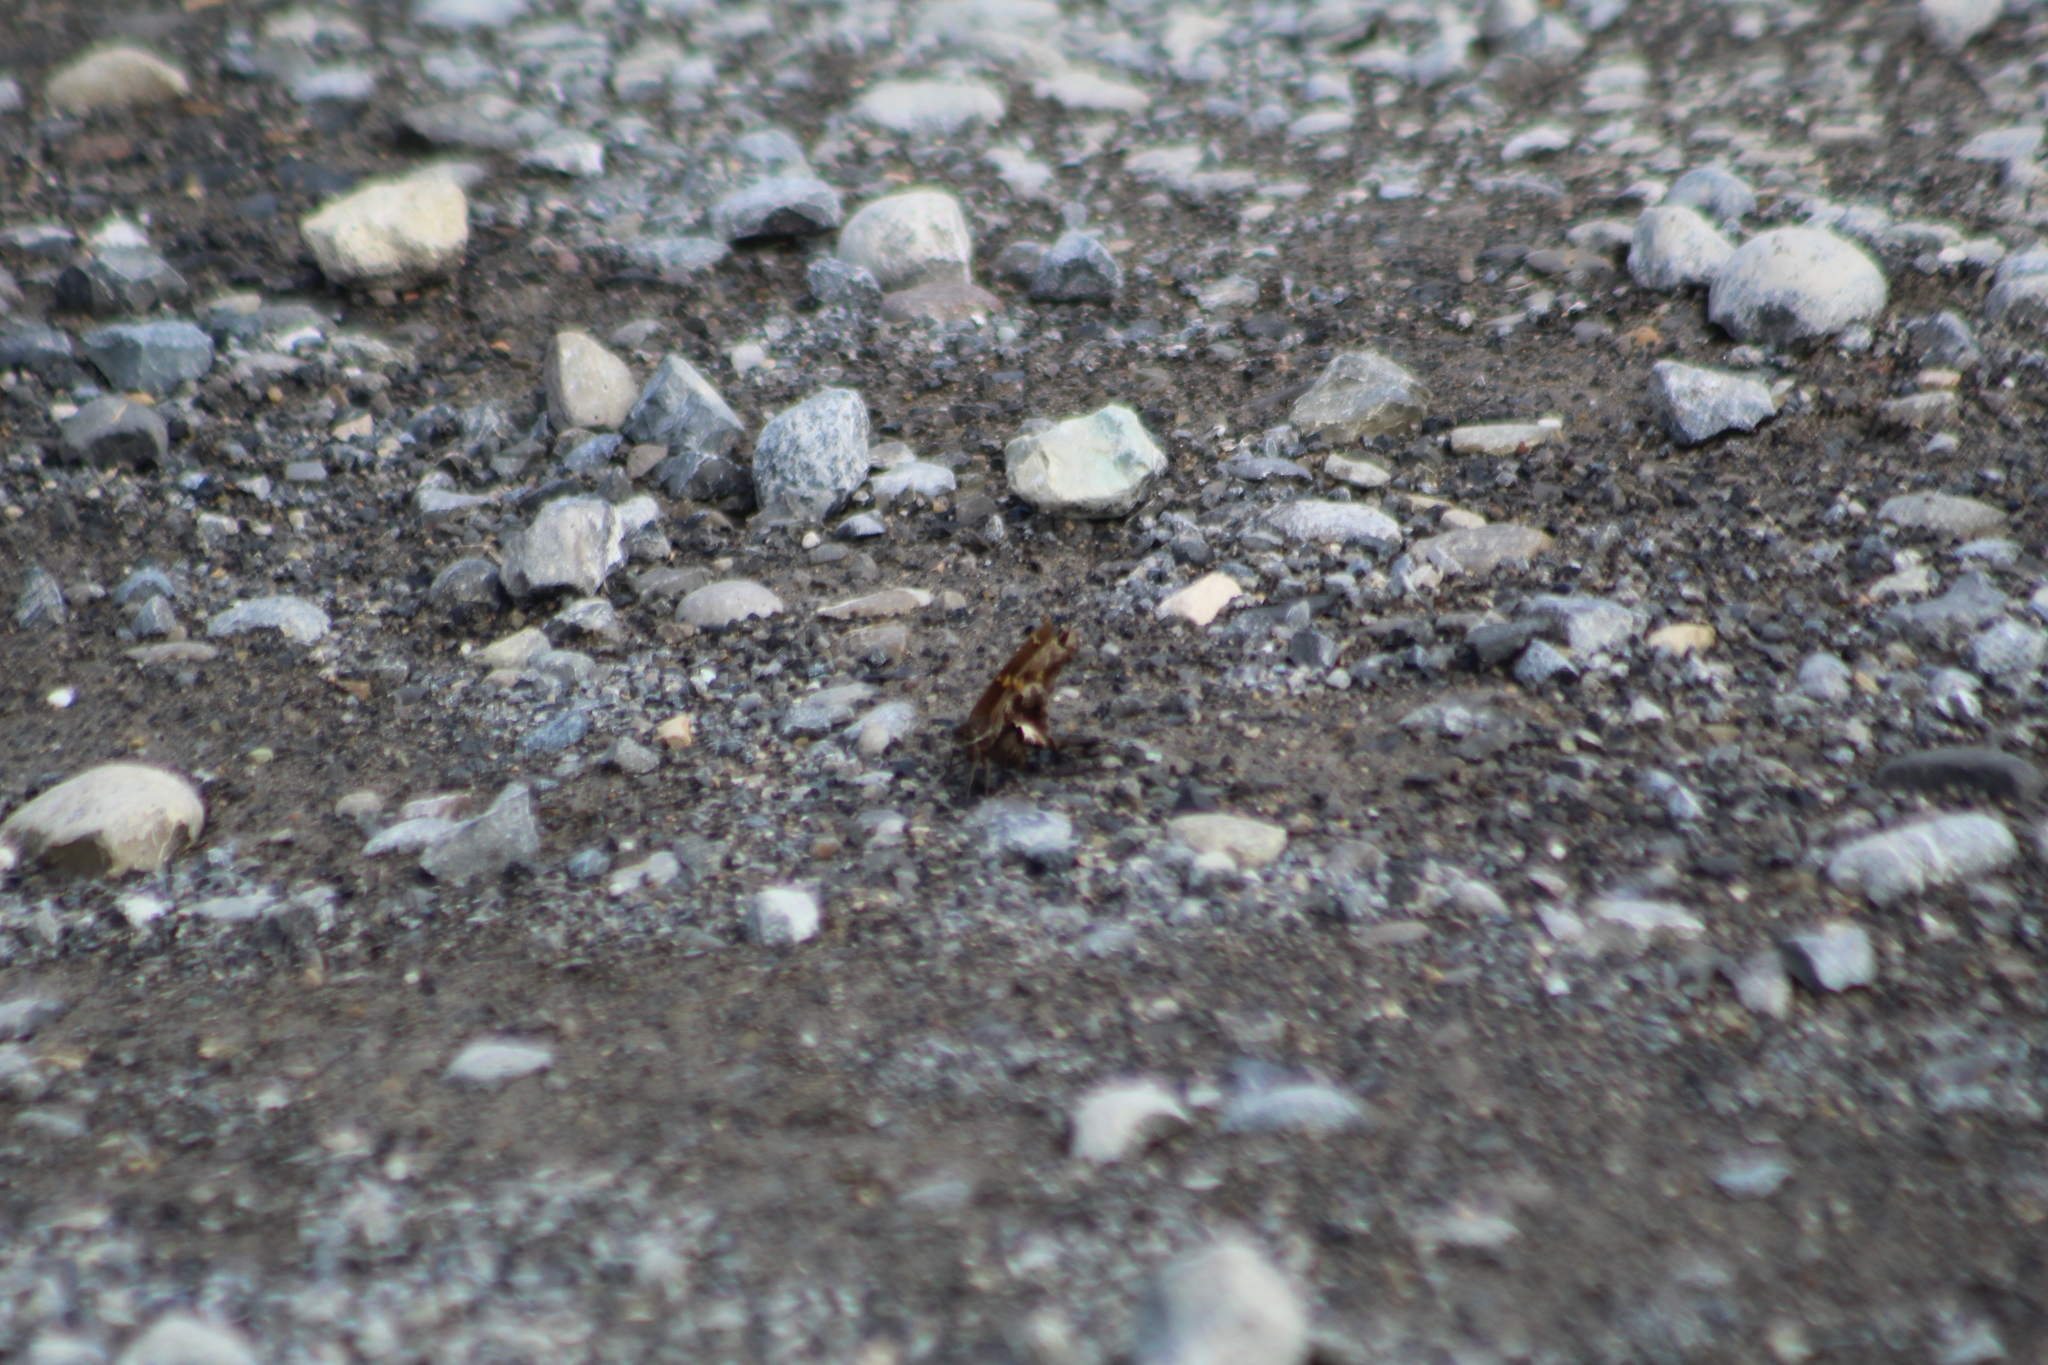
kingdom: Animalia
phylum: Arthropoda
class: Insecta
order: Lepidoptera
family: Hesperiidae
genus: Chioides
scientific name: Chioides zilpa
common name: Zilpa longtail
